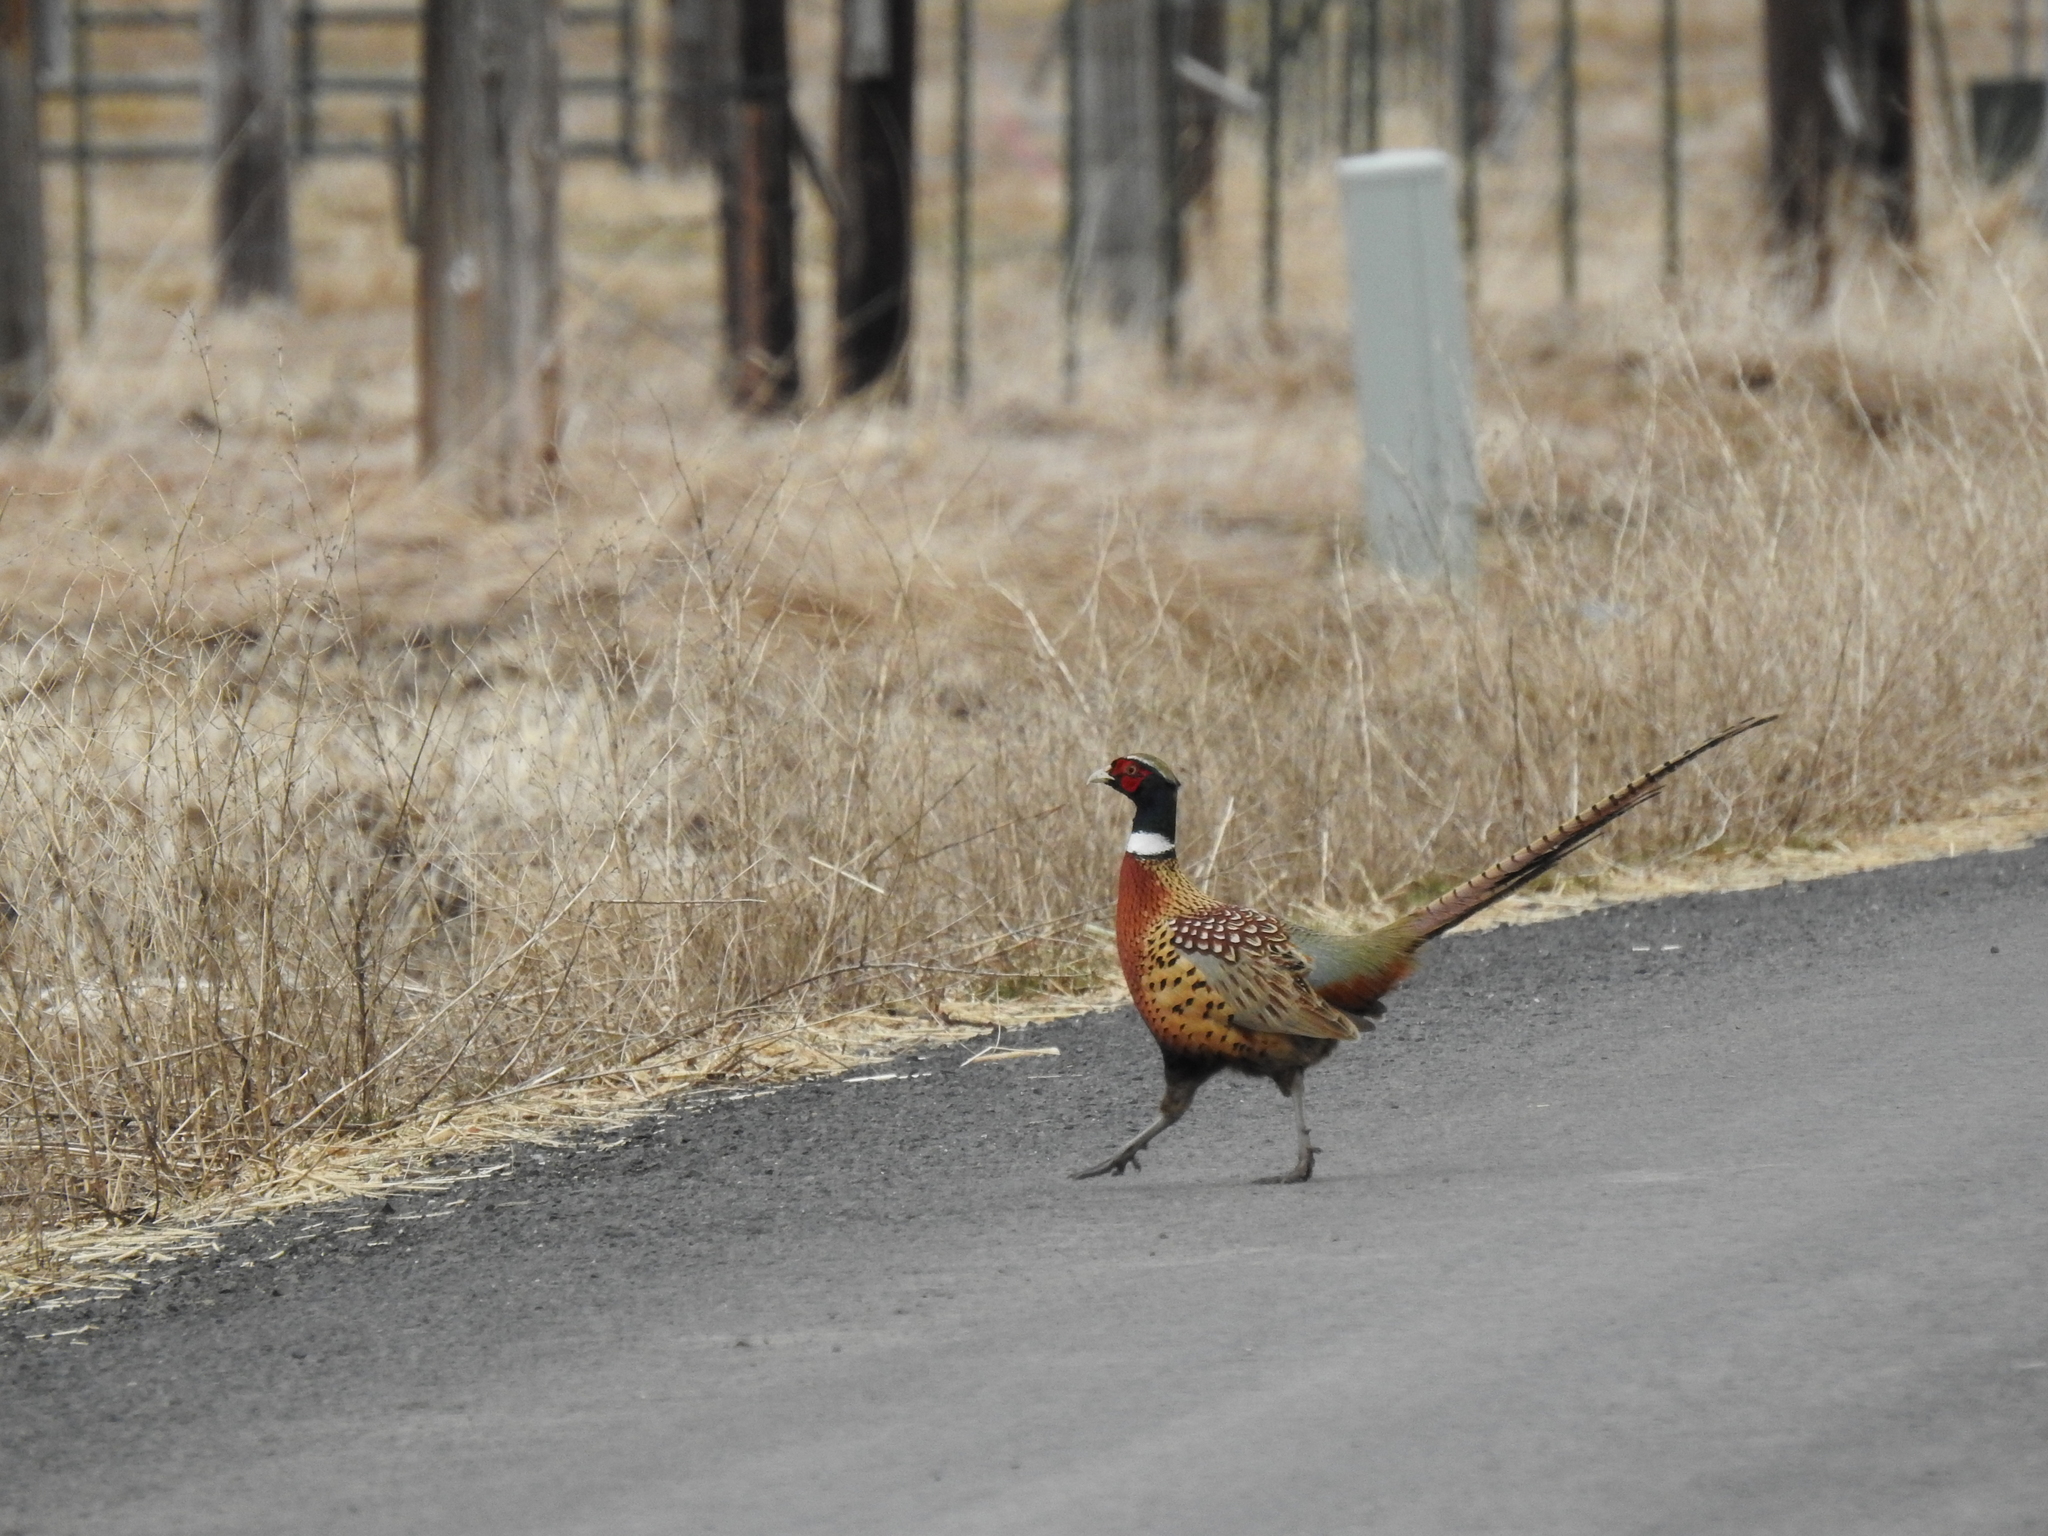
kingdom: Animalia
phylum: Chordata
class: Aves
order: Galliformes
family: Phasianidae
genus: Phasianus
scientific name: Phasianus colchicus
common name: Common pheasant
